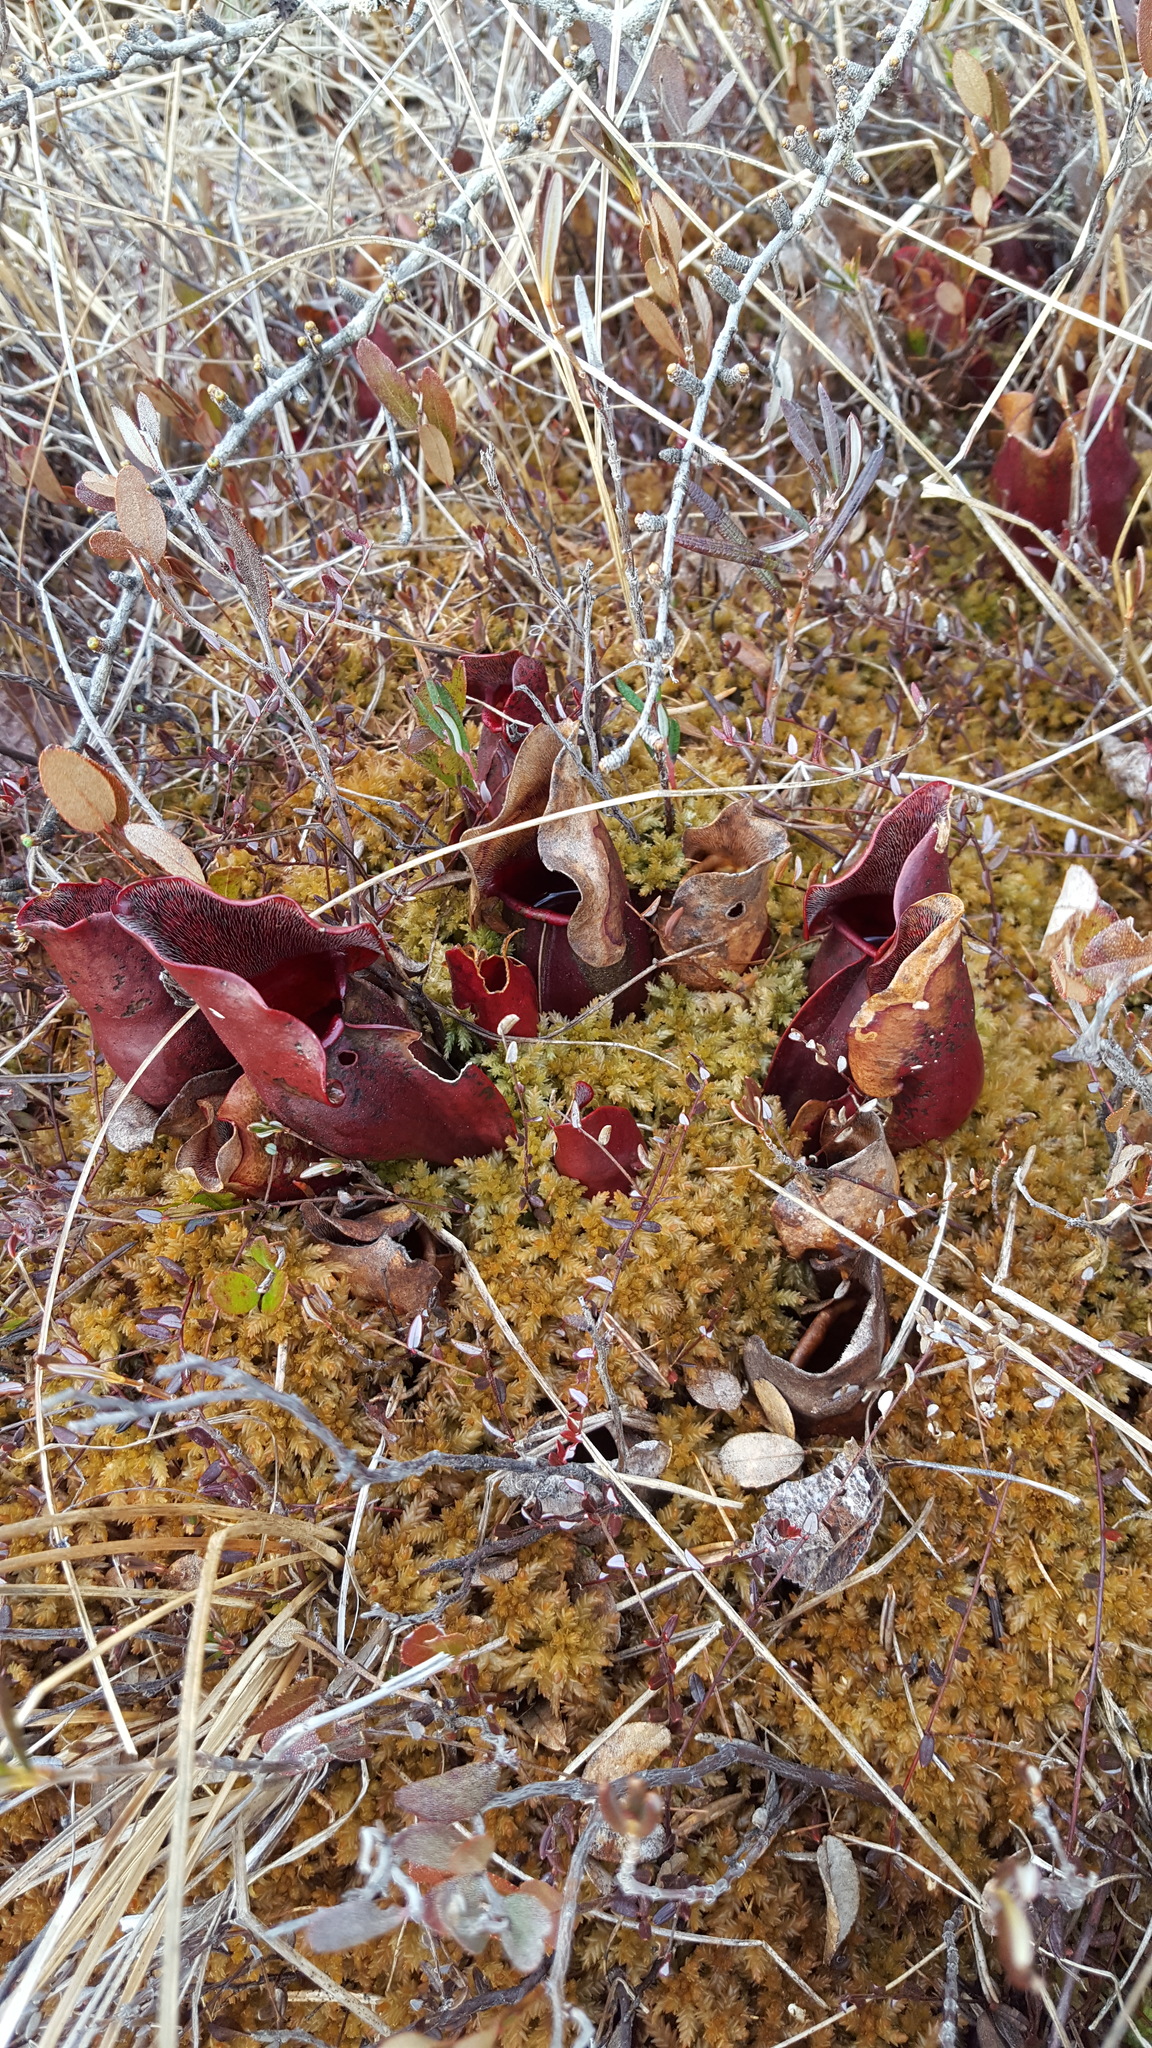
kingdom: Plantae
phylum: Tracheophyta
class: Magnoliopsida
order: Ericales
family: Sarraceniaceae
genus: Sarracenia
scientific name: Sarracenia purpurea
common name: Pitcherplant
